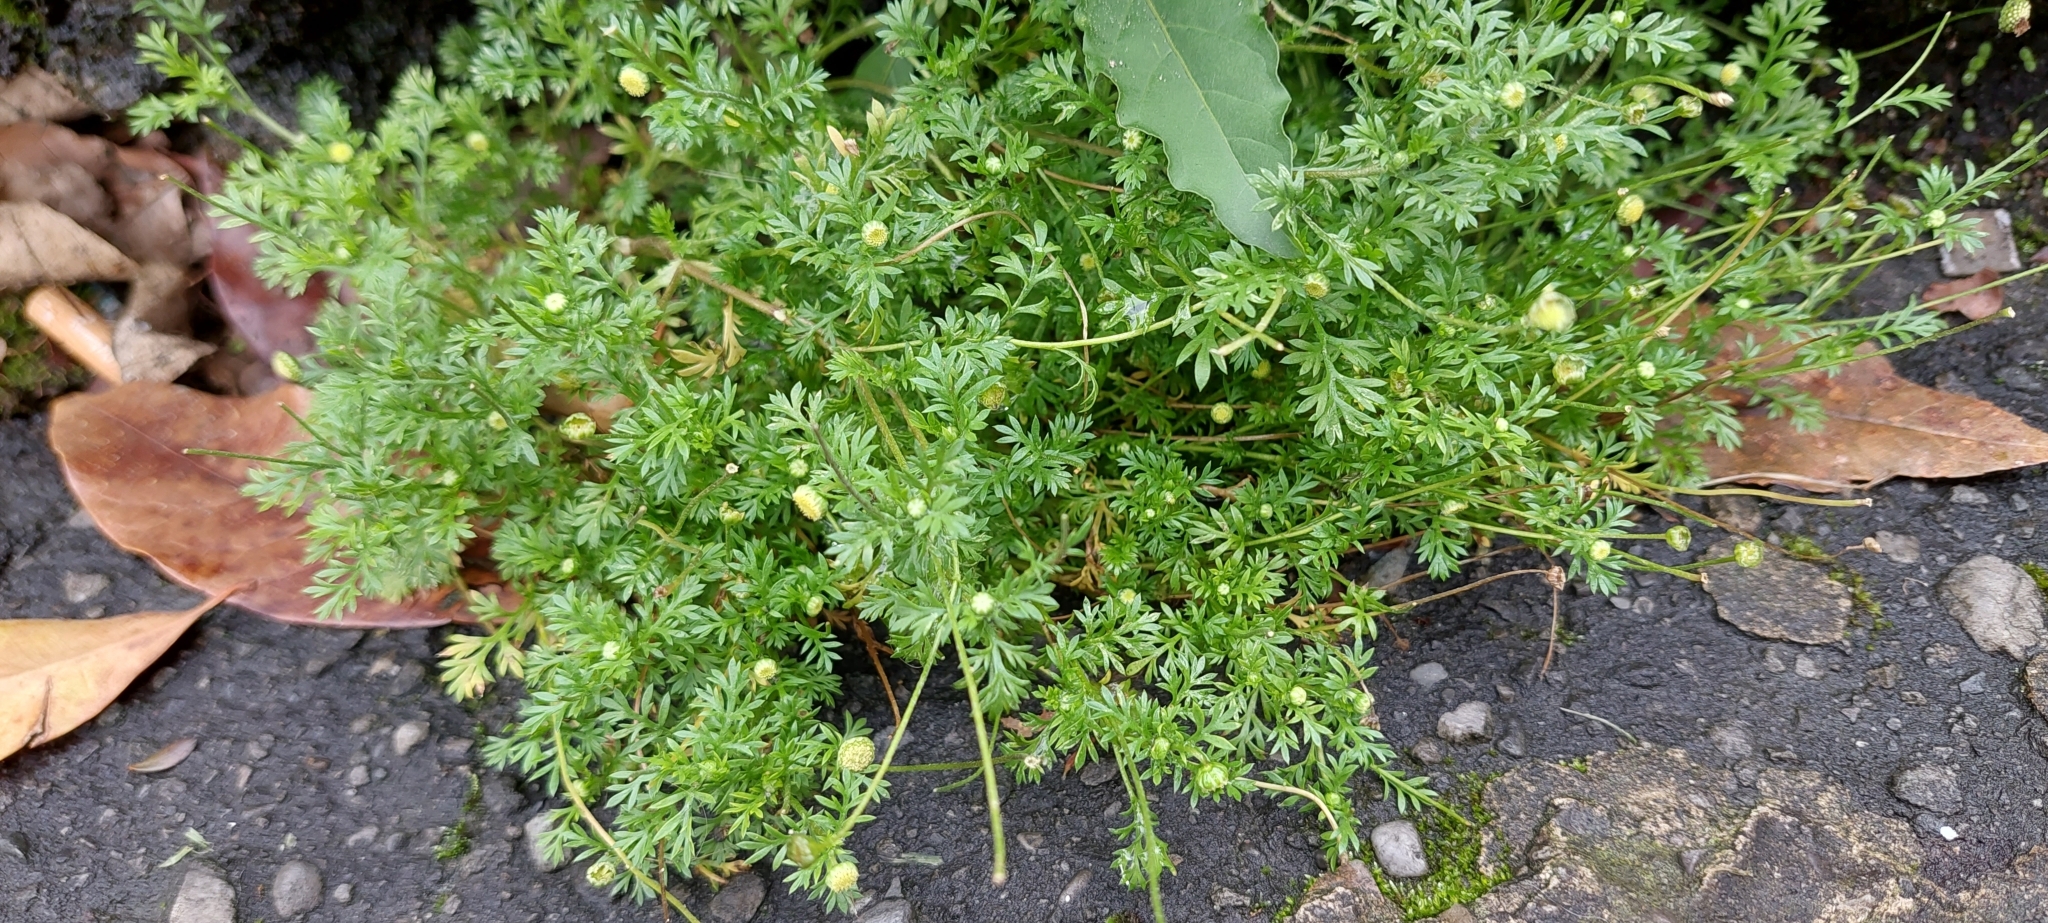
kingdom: Plantae
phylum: Tracheophyta
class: Magnoliopsida
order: Asterales
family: Asteraceae
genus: Cotula
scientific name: Cotula australis
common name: Australian waterbuttons
